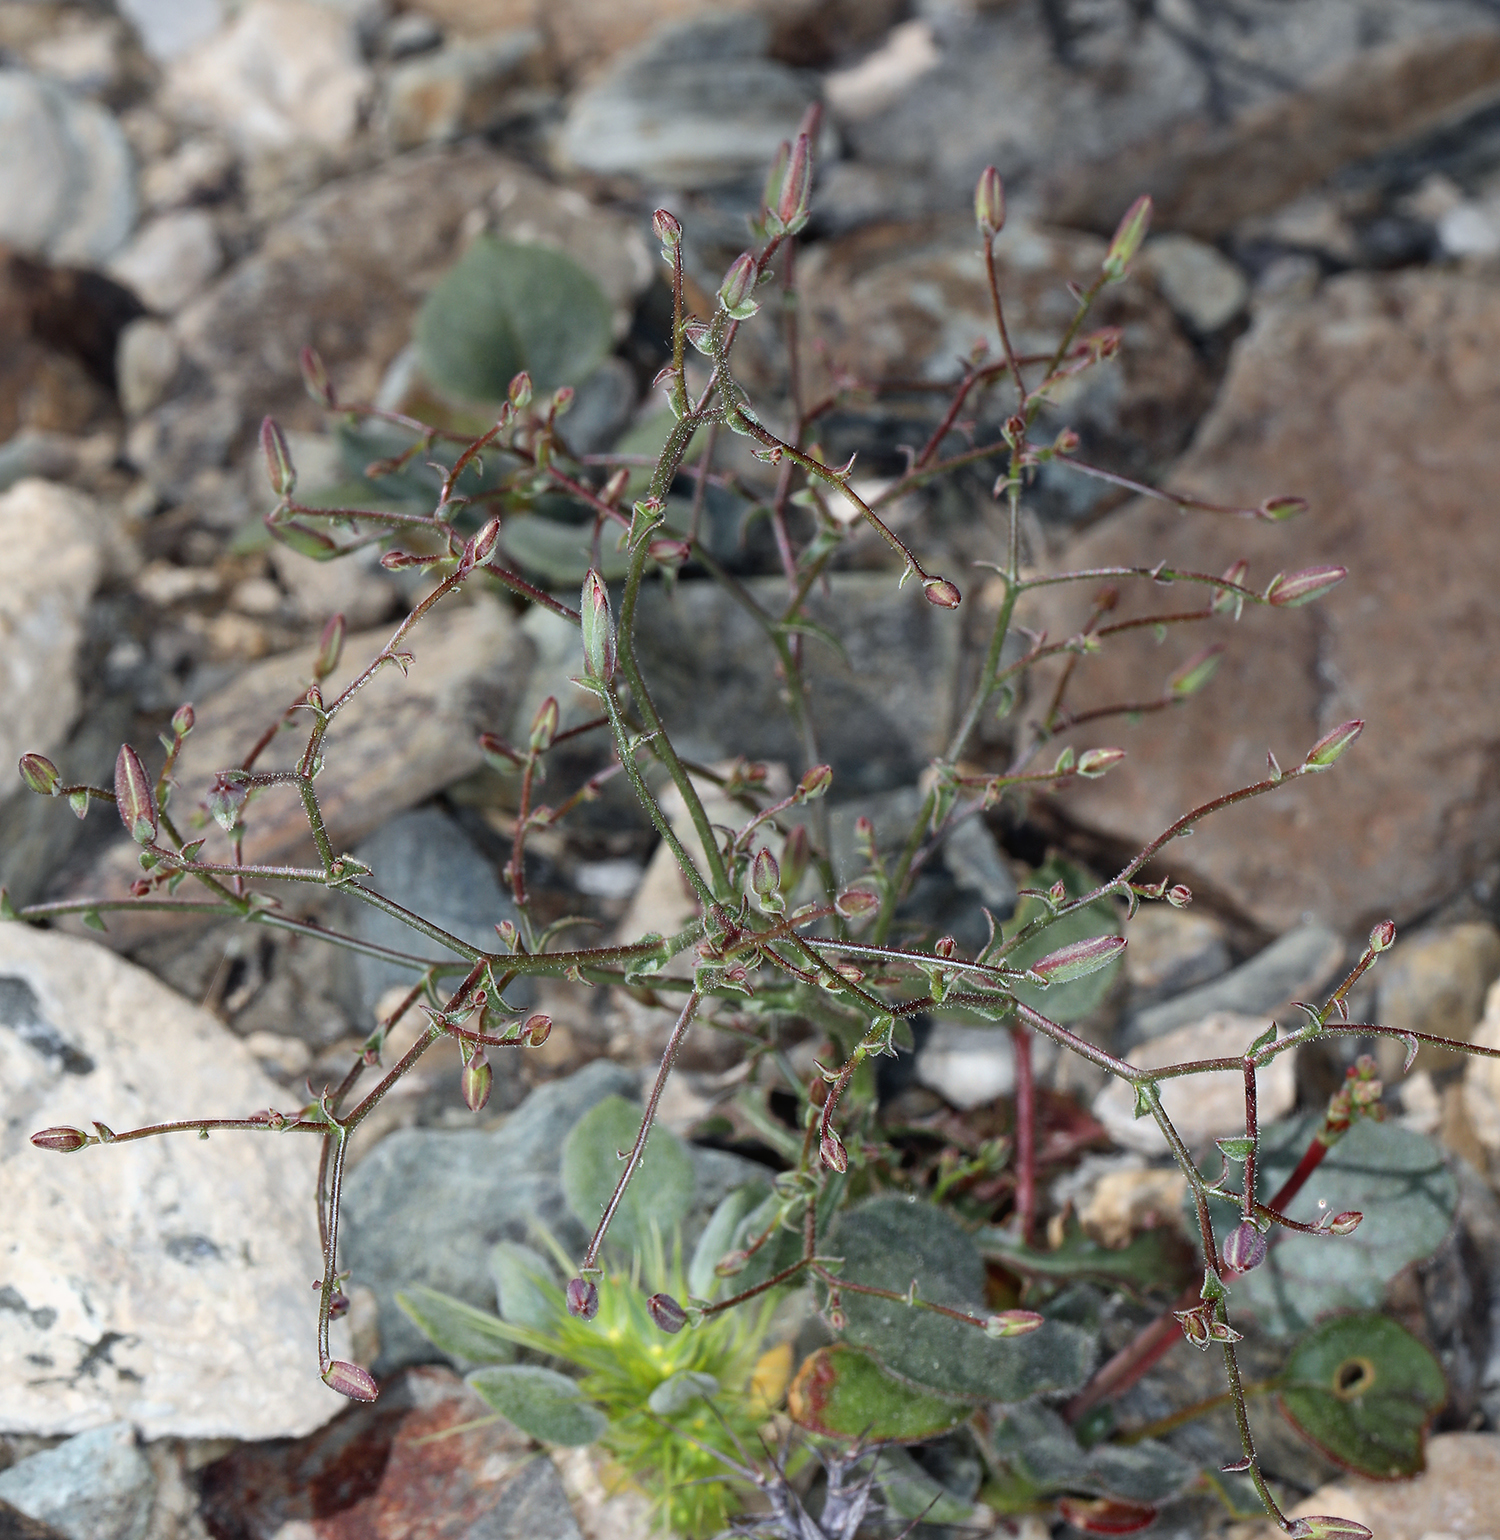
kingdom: Plantae
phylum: Tracheophyta
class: Magnoliopsida
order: Asterales
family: Asteraceae
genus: Lygodesmia
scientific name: Lygodesmia exigua
